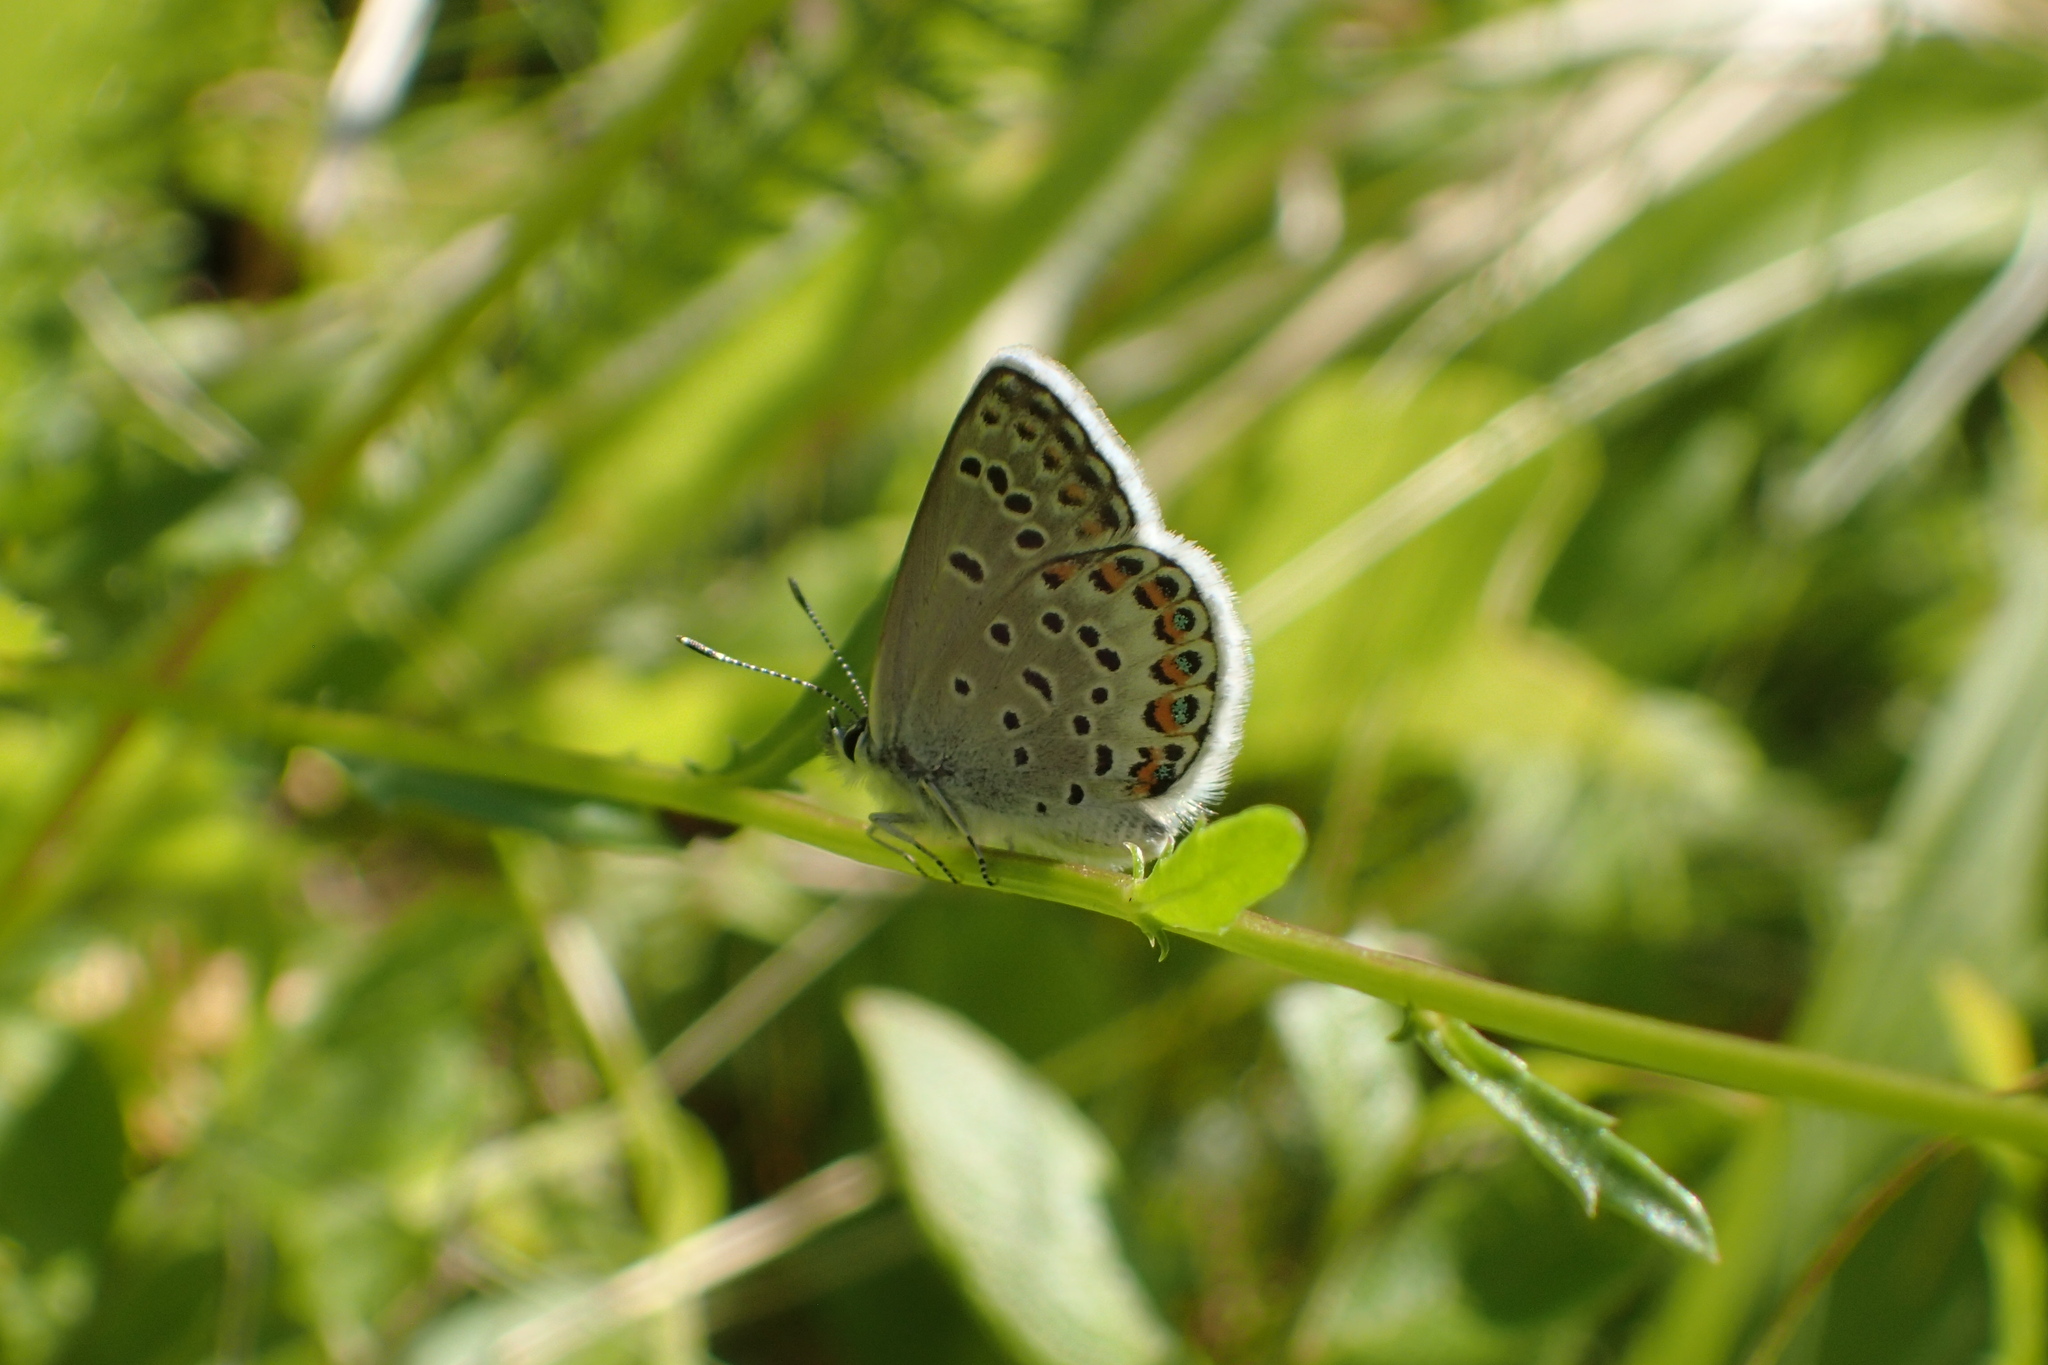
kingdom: Animalia
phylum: Arthropoda
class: Insecta
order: Lepidoptera
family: Lycaenidae
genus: Lycaeides
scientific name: Lycaeides idas
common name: Northern blue
